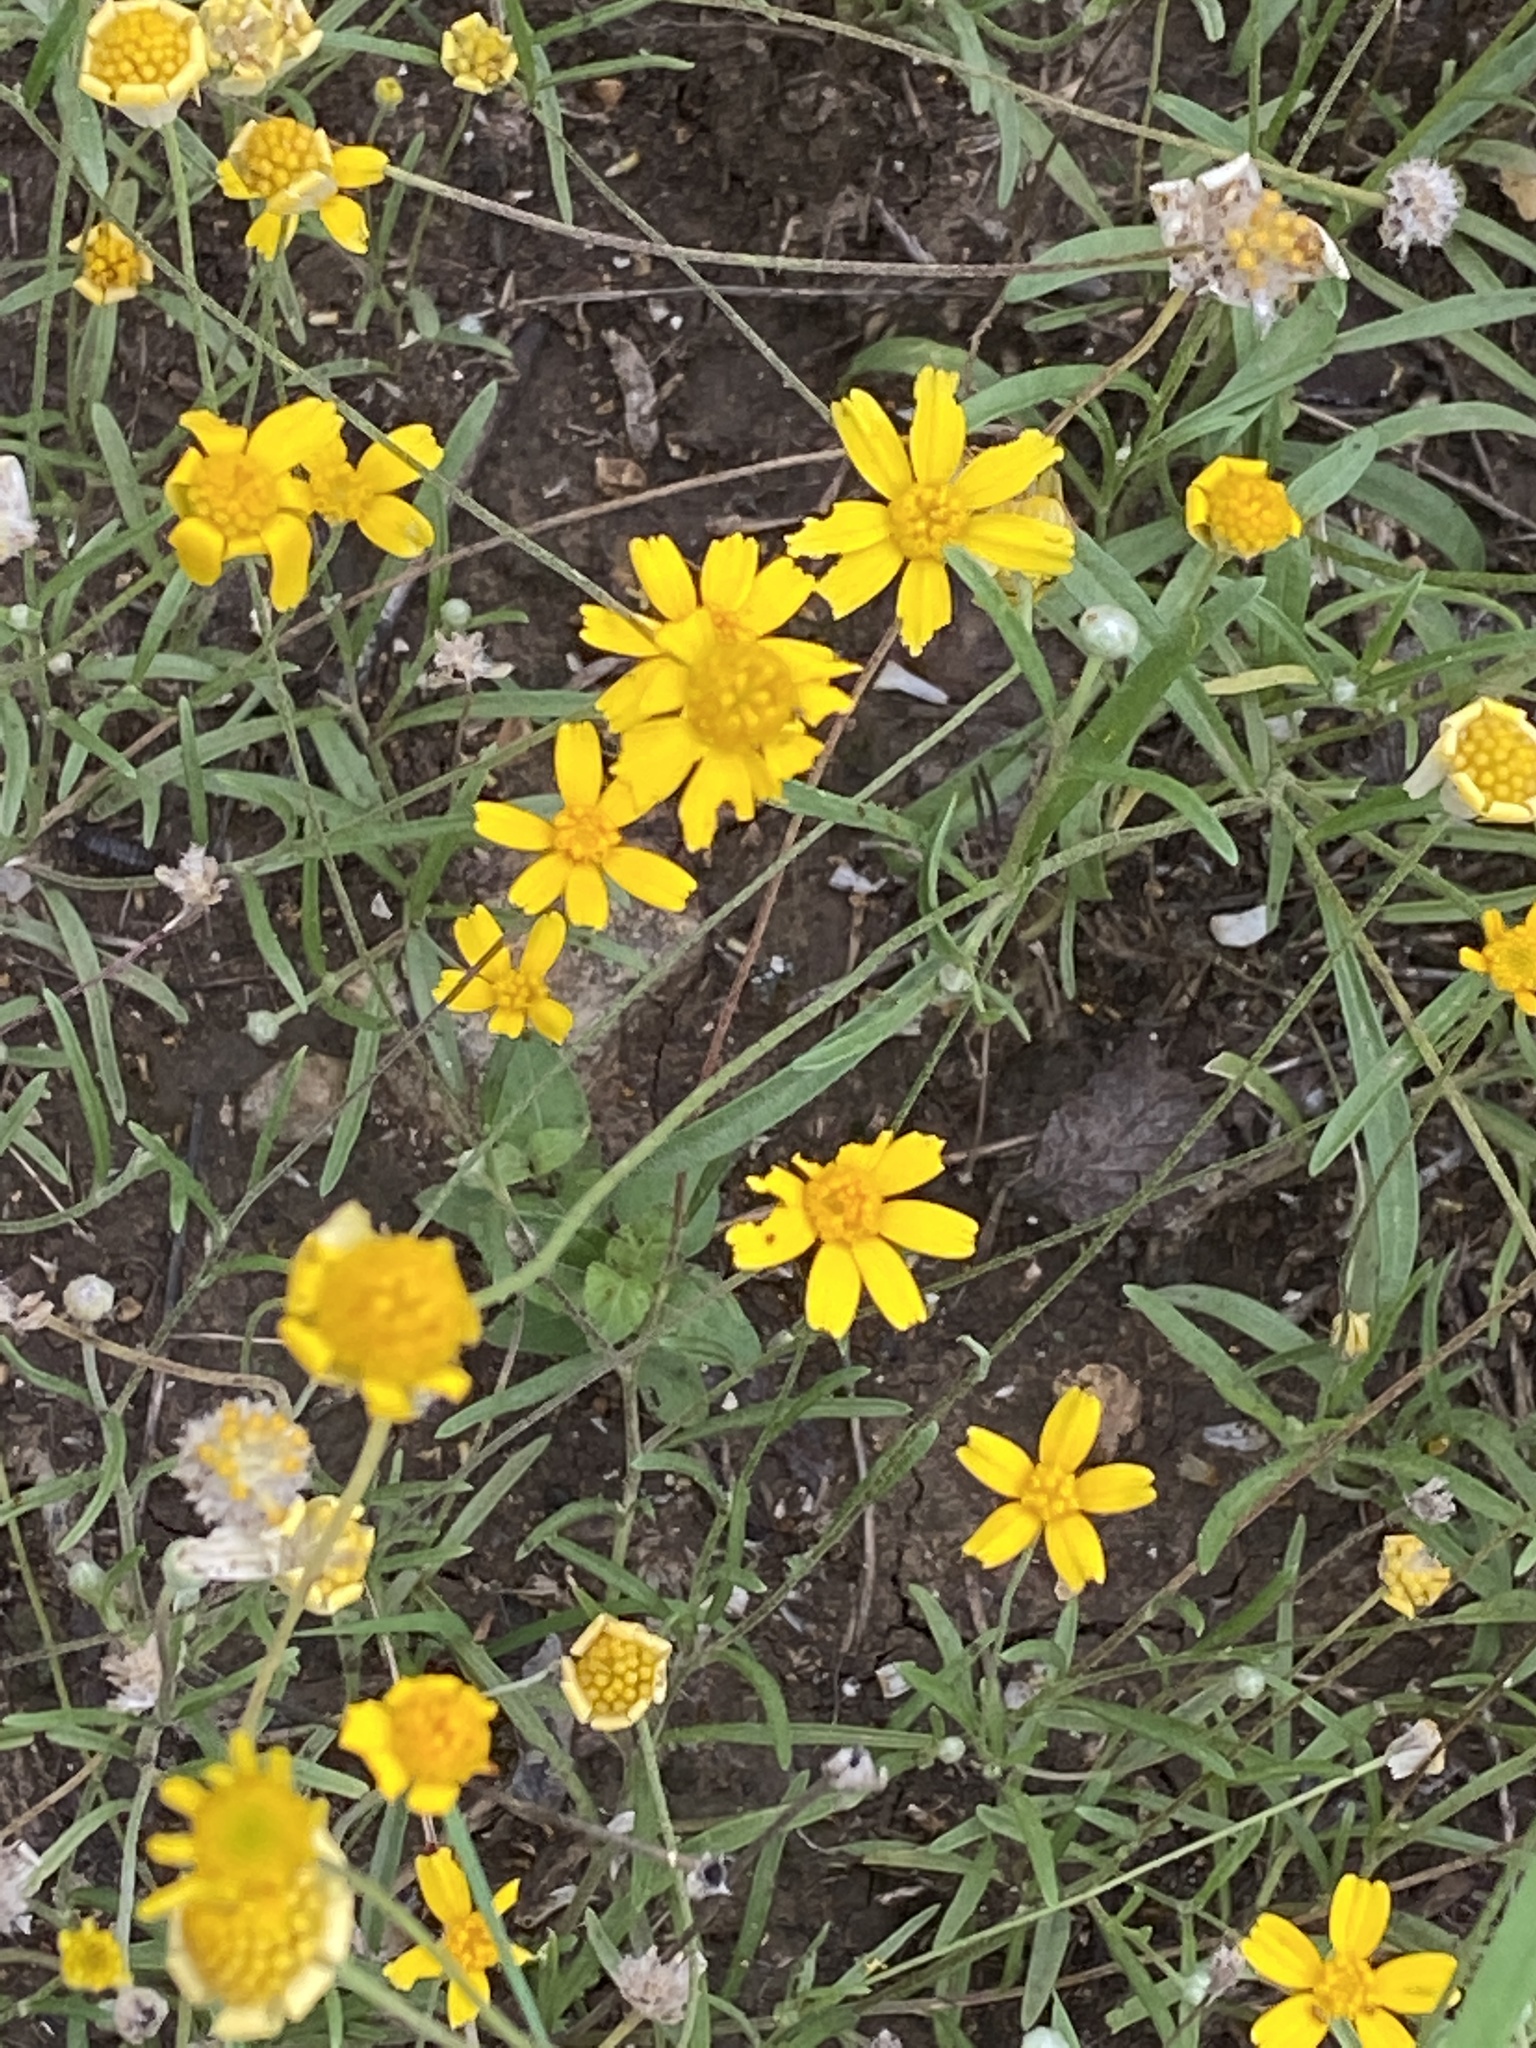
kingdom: Plantae
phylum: Tracheophyta
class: Magnoliopsida
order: Asterales
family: Asteraceae
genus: Tetraneuris
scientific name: Tetraneuris linearifolia
